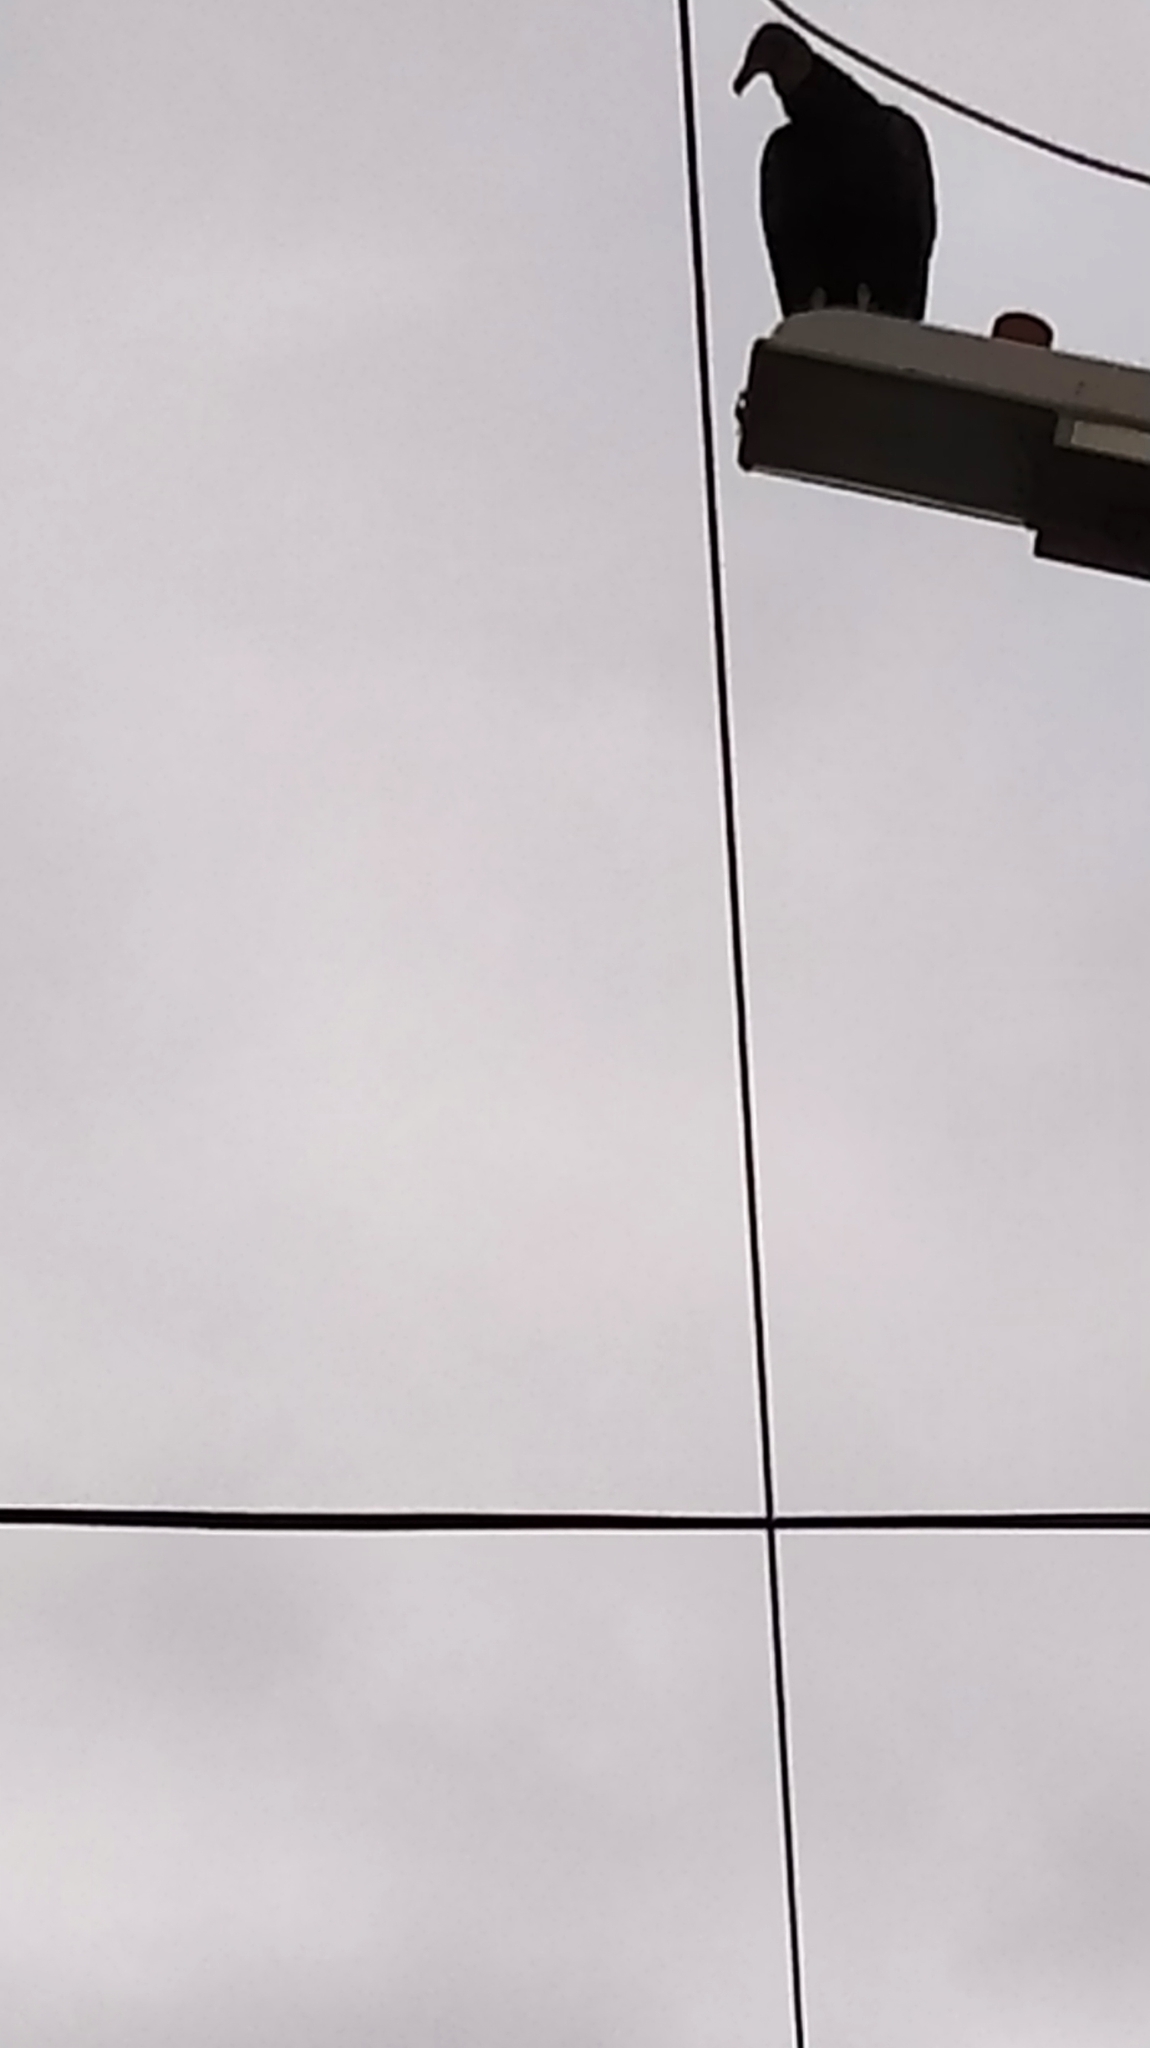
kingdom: Animalia
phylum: Chordata
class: Aves
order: Accipitriformes
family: Cathartidae
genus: Coragyps
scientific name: Coragyps atratus
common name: Black vulture
